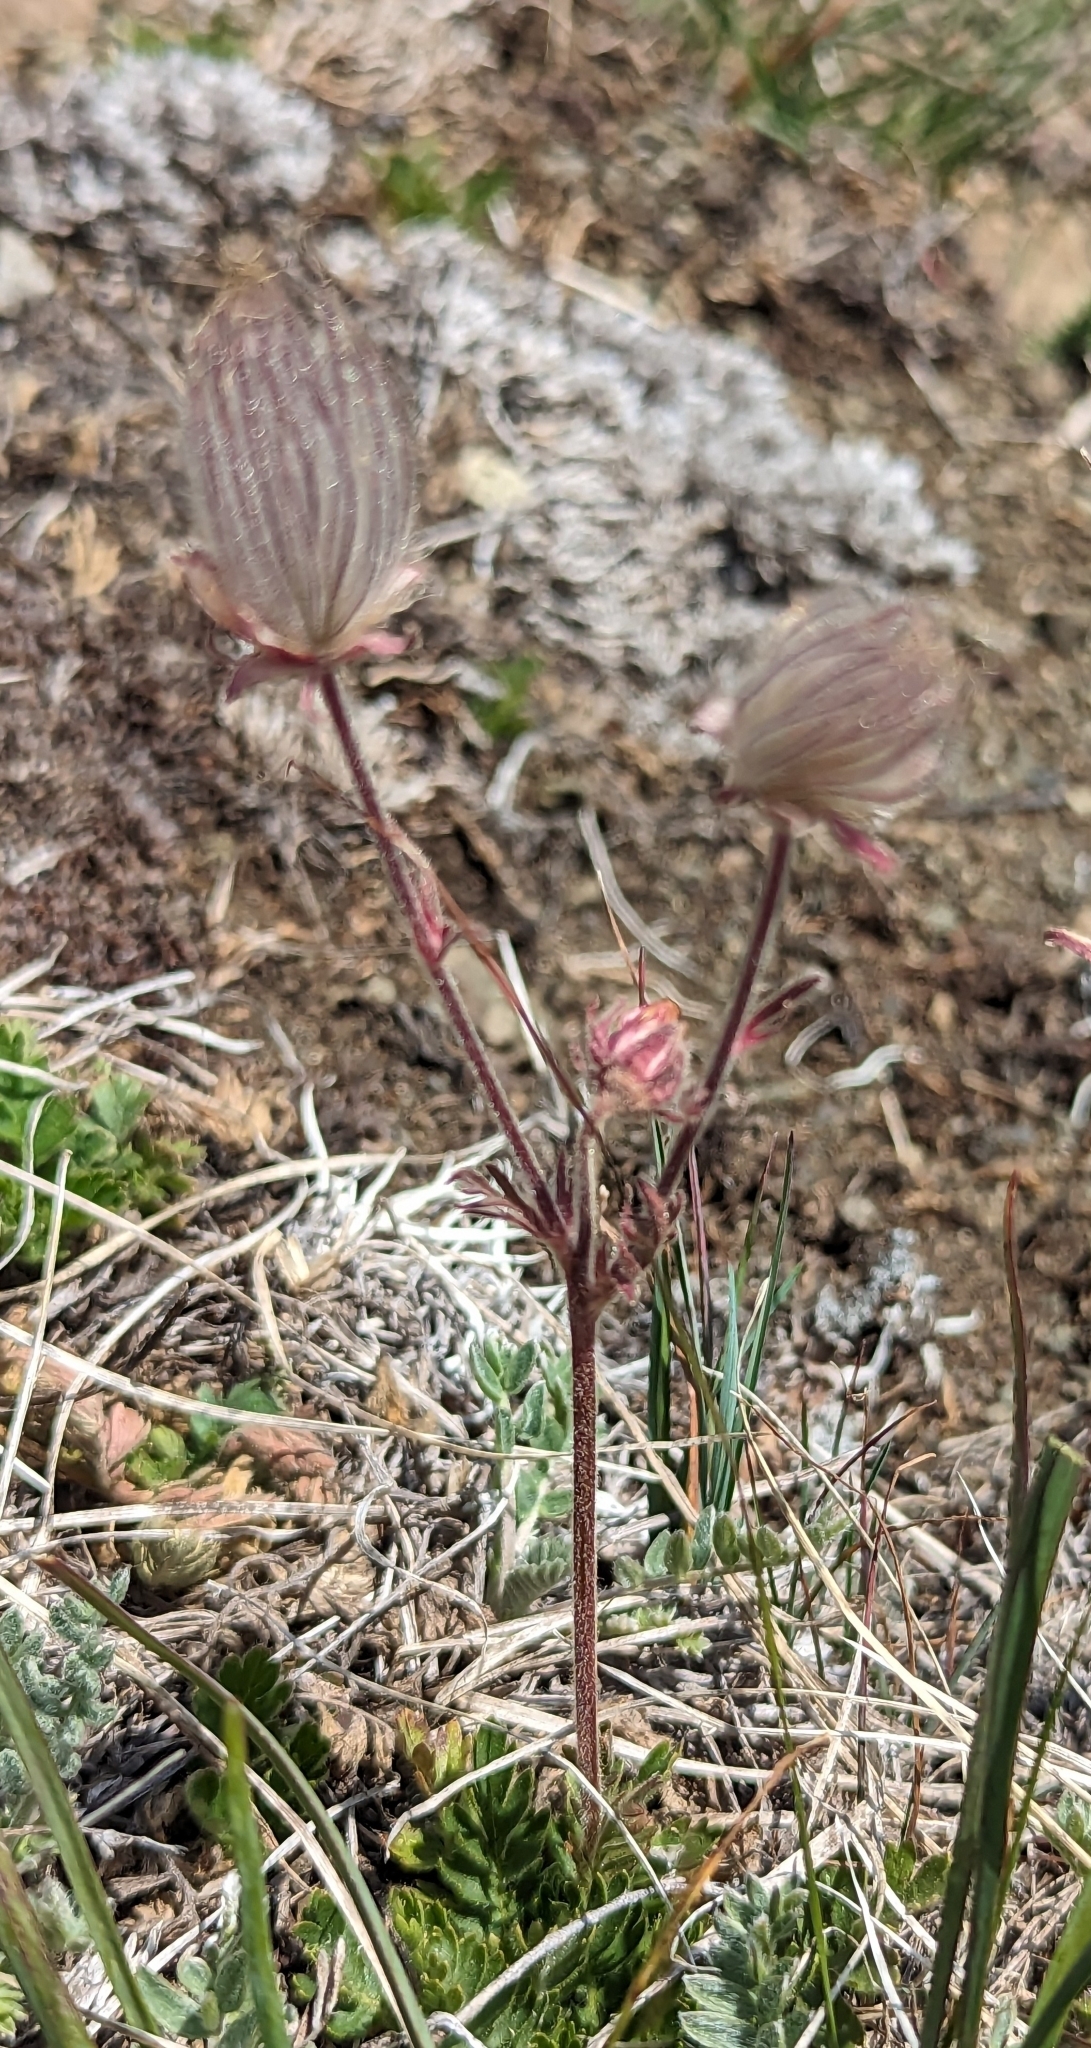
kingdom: Plantae
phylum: Tracheophyta
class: Magnoliopsida
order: Rosales
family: Rosaceae
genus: Geum
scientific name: Geum triflorum
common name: Old man's whiskers
